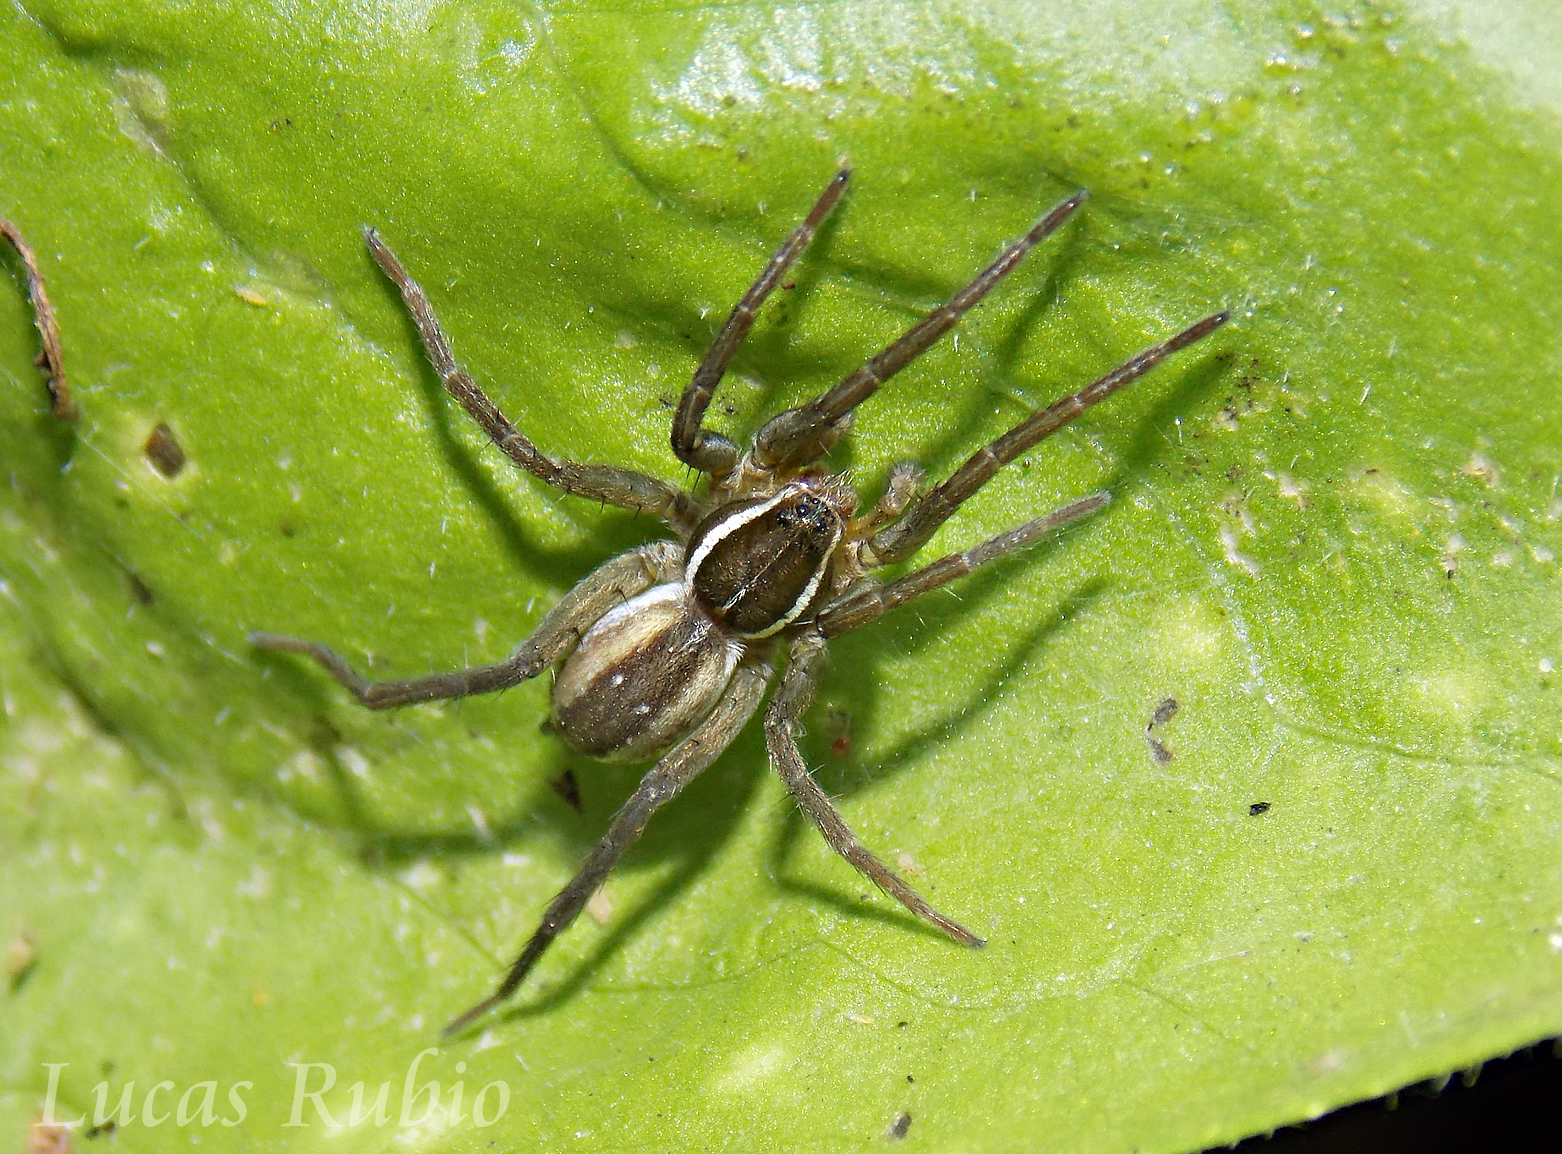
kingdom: Animalia
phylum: Arthropoda
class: Arachnida
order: Araneae
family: Lycosidae
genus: Diapontia
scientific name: Diapontia uruguayensis
